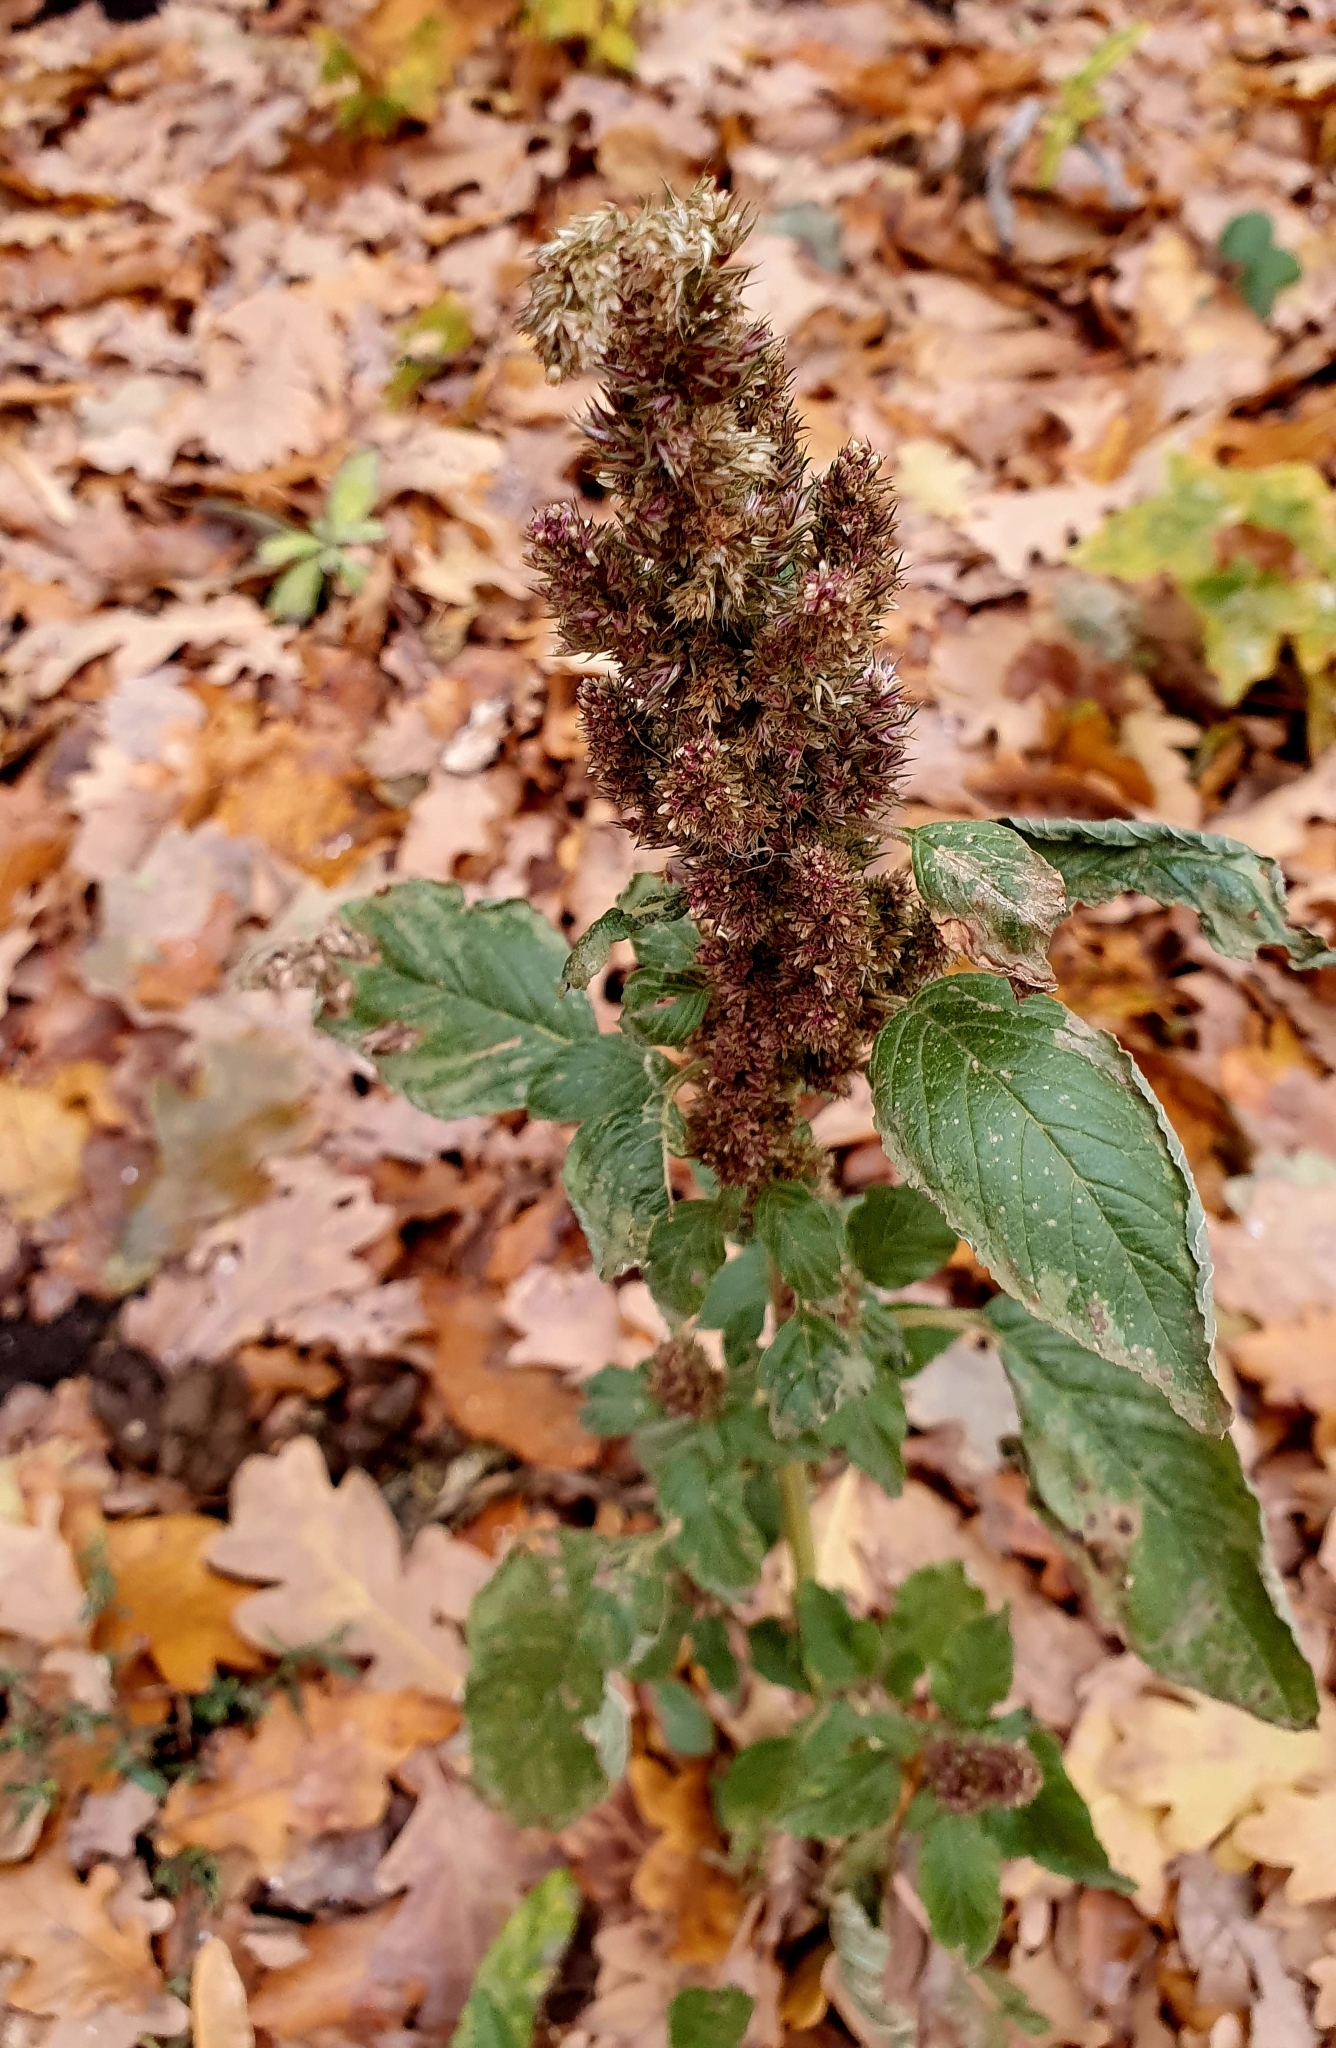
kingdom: Plantae
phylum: Tracheophyta
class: Magnoliopsida
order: Caryophyllales
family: Amaranthaceae
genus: Amaranthus
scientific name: Amaranthus retroflexus
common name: Redroot amaranth
